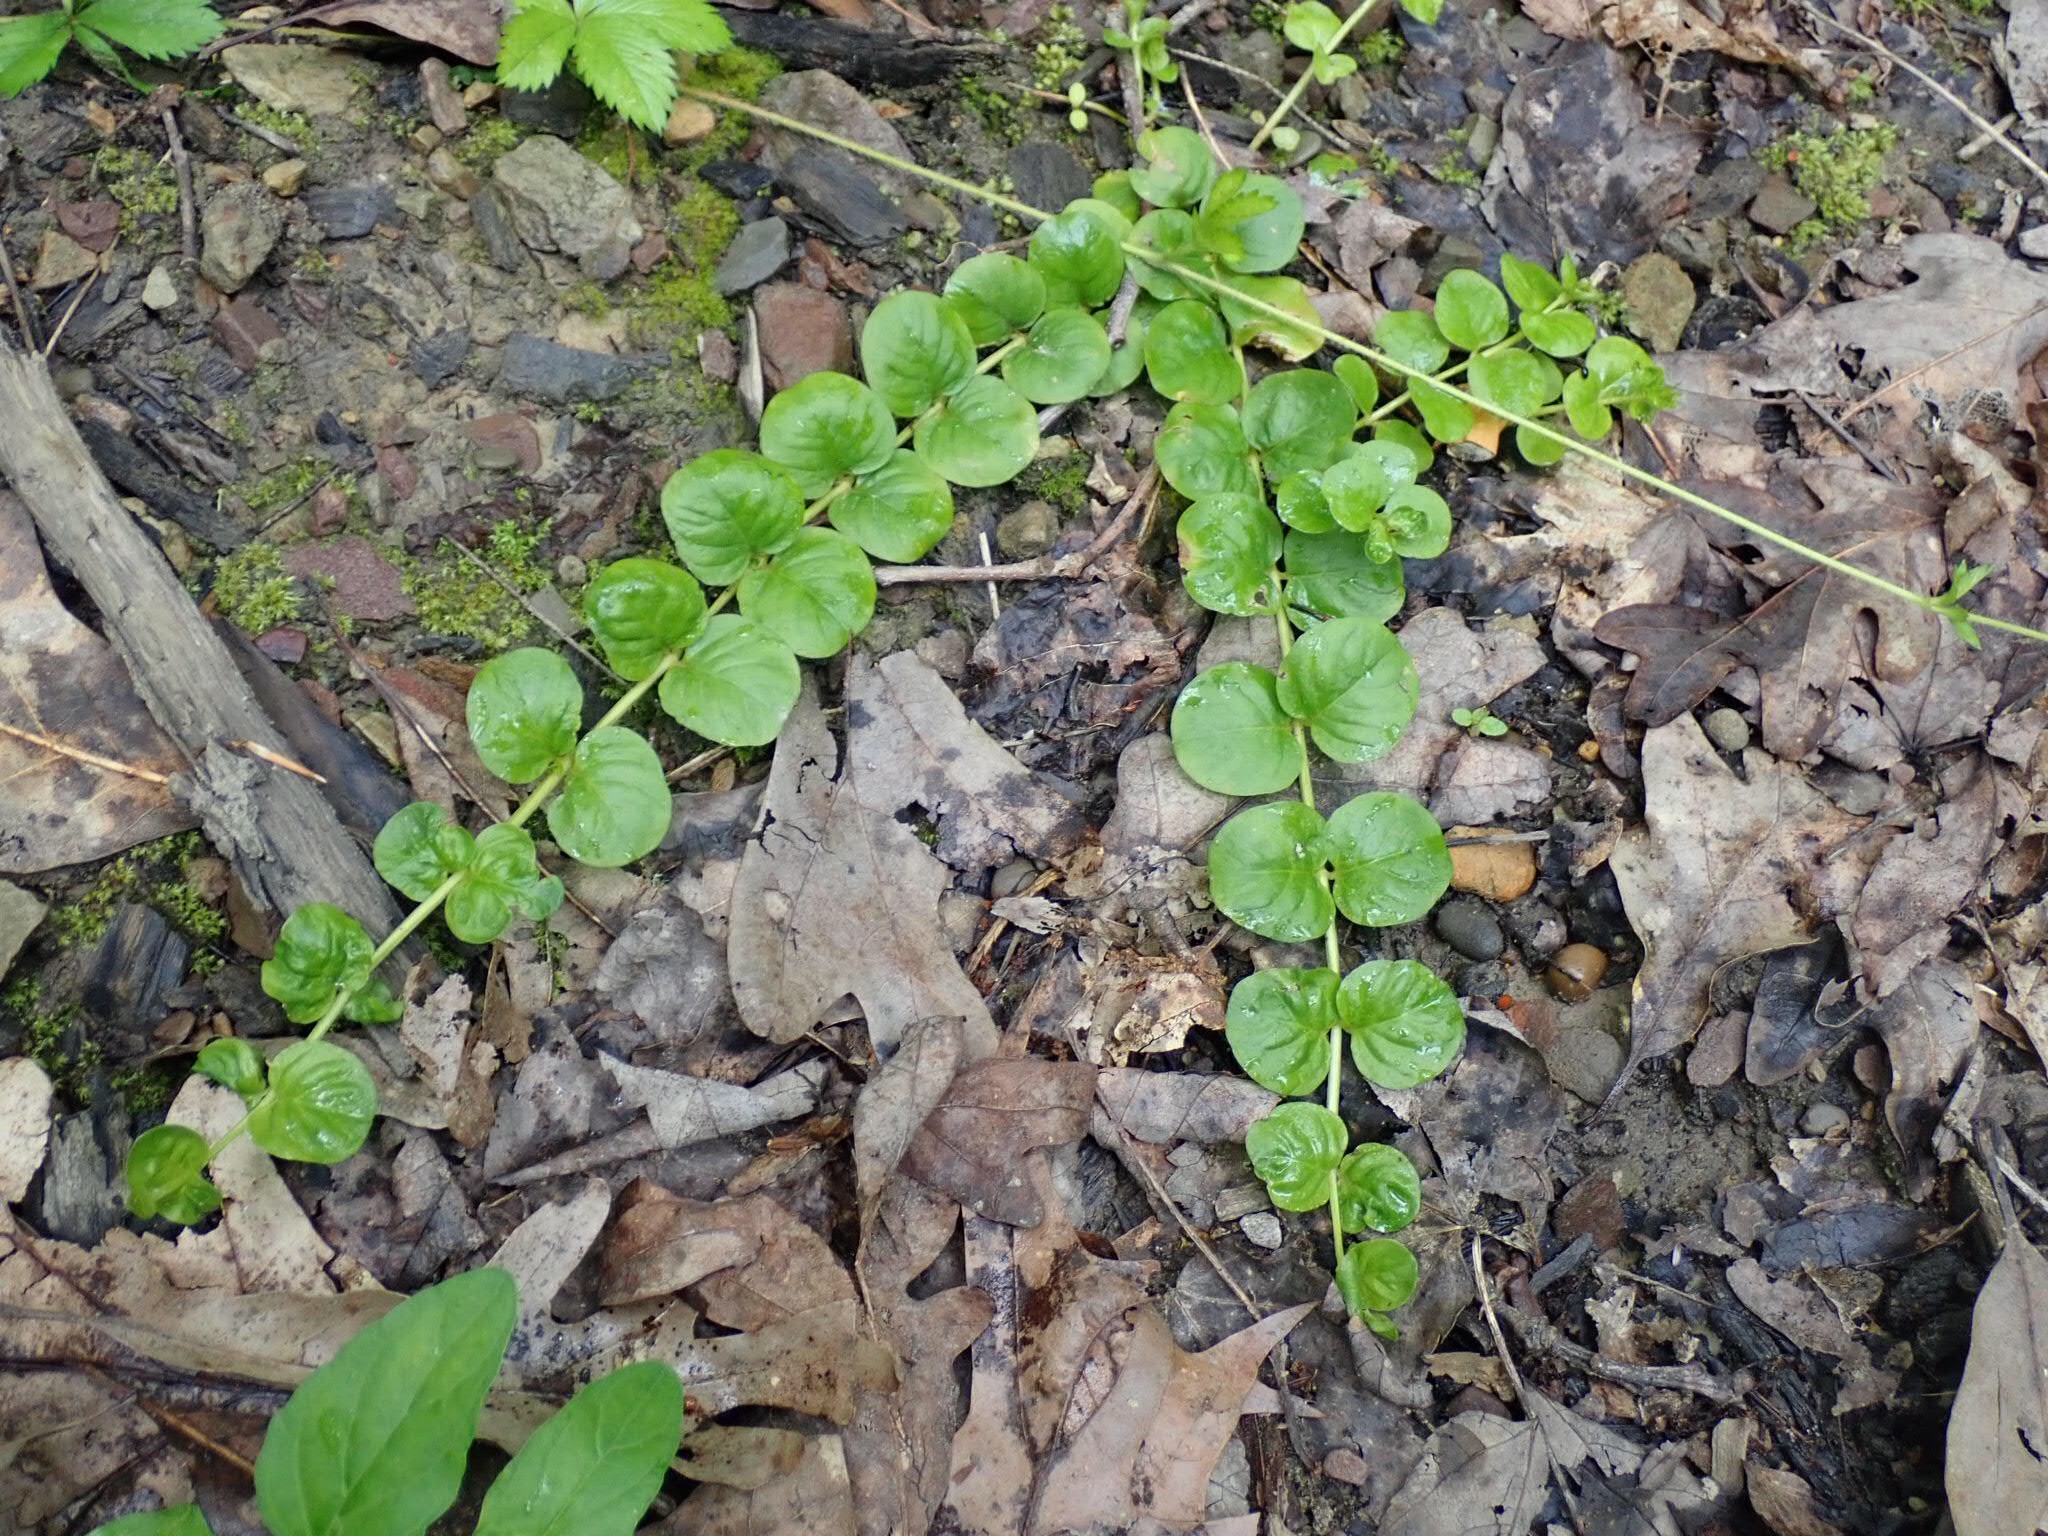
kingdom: Plantae
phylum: Tracheophyta
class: Magnoliopsida
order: Ericales
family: Primulaceae
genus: Lysimachia
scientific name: Lysimachia nummularia
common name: Moneywort
